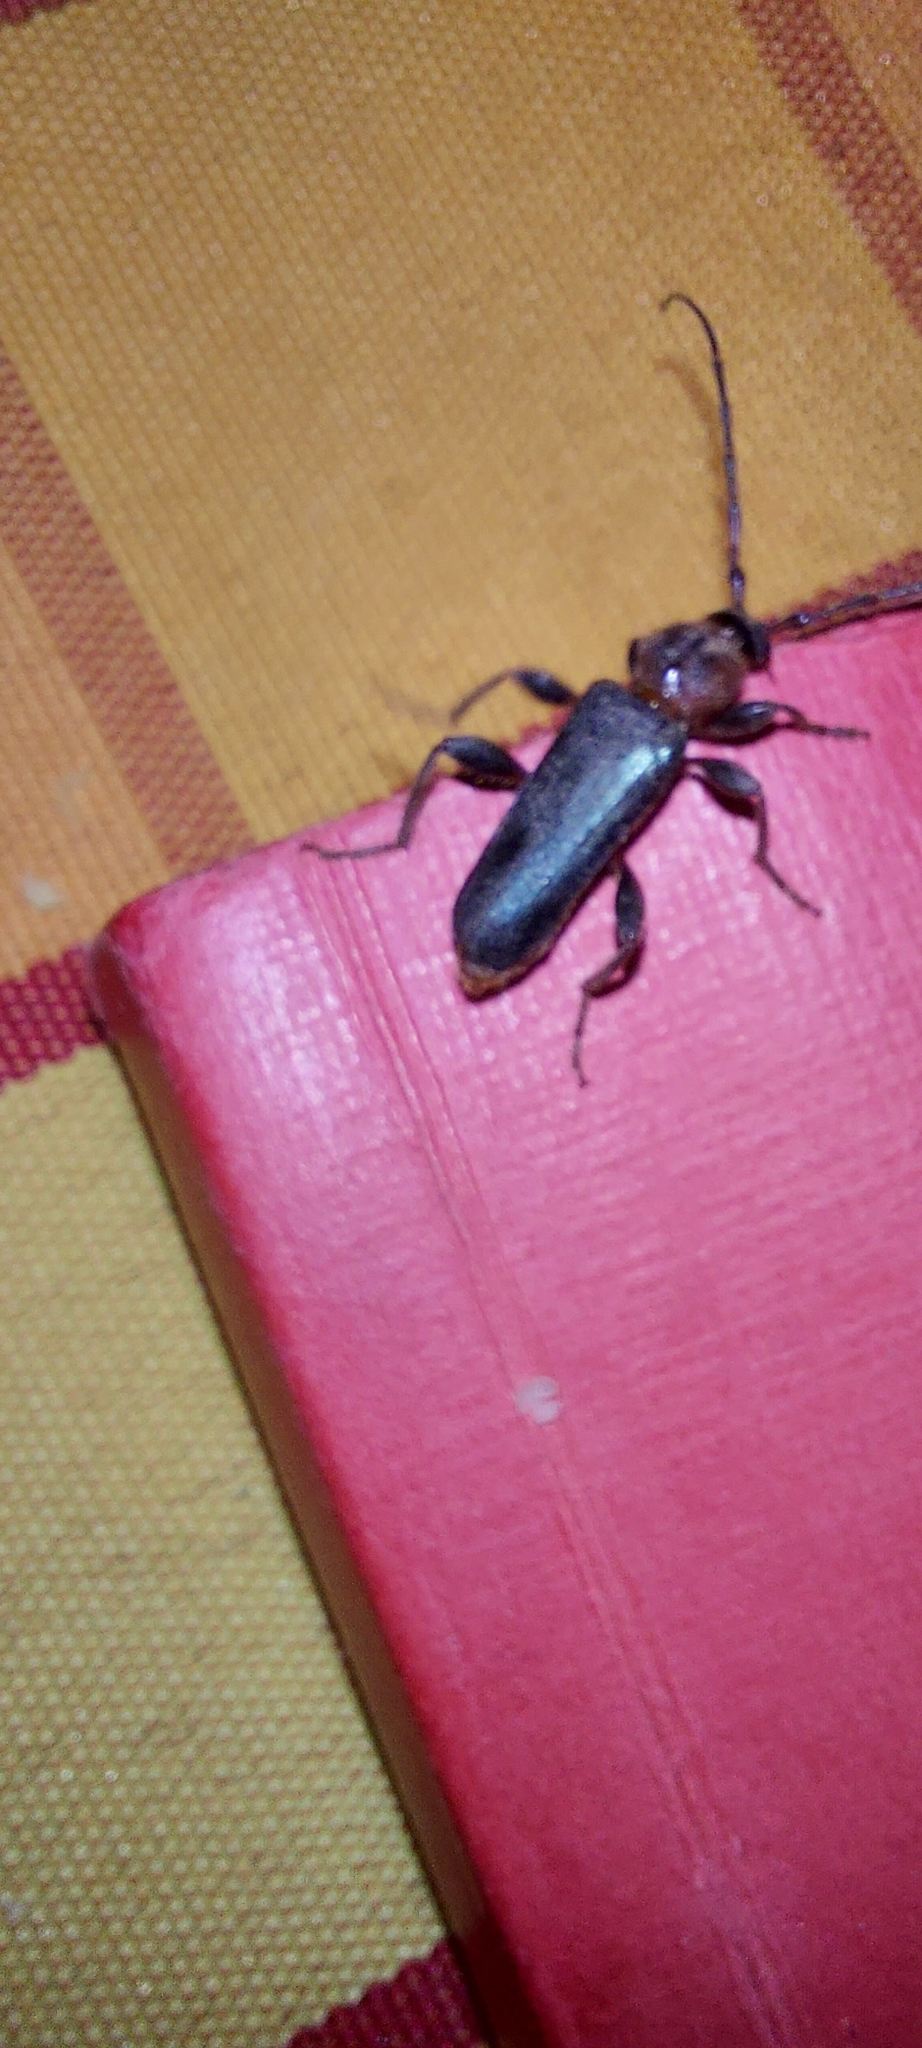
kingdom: Animalia
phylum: Arthropoda
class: Insecta
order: Coleoptera
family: Cerambycidae
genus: Phymatodes
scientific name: Phymatodes testaceus
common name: Long-horned beetle
